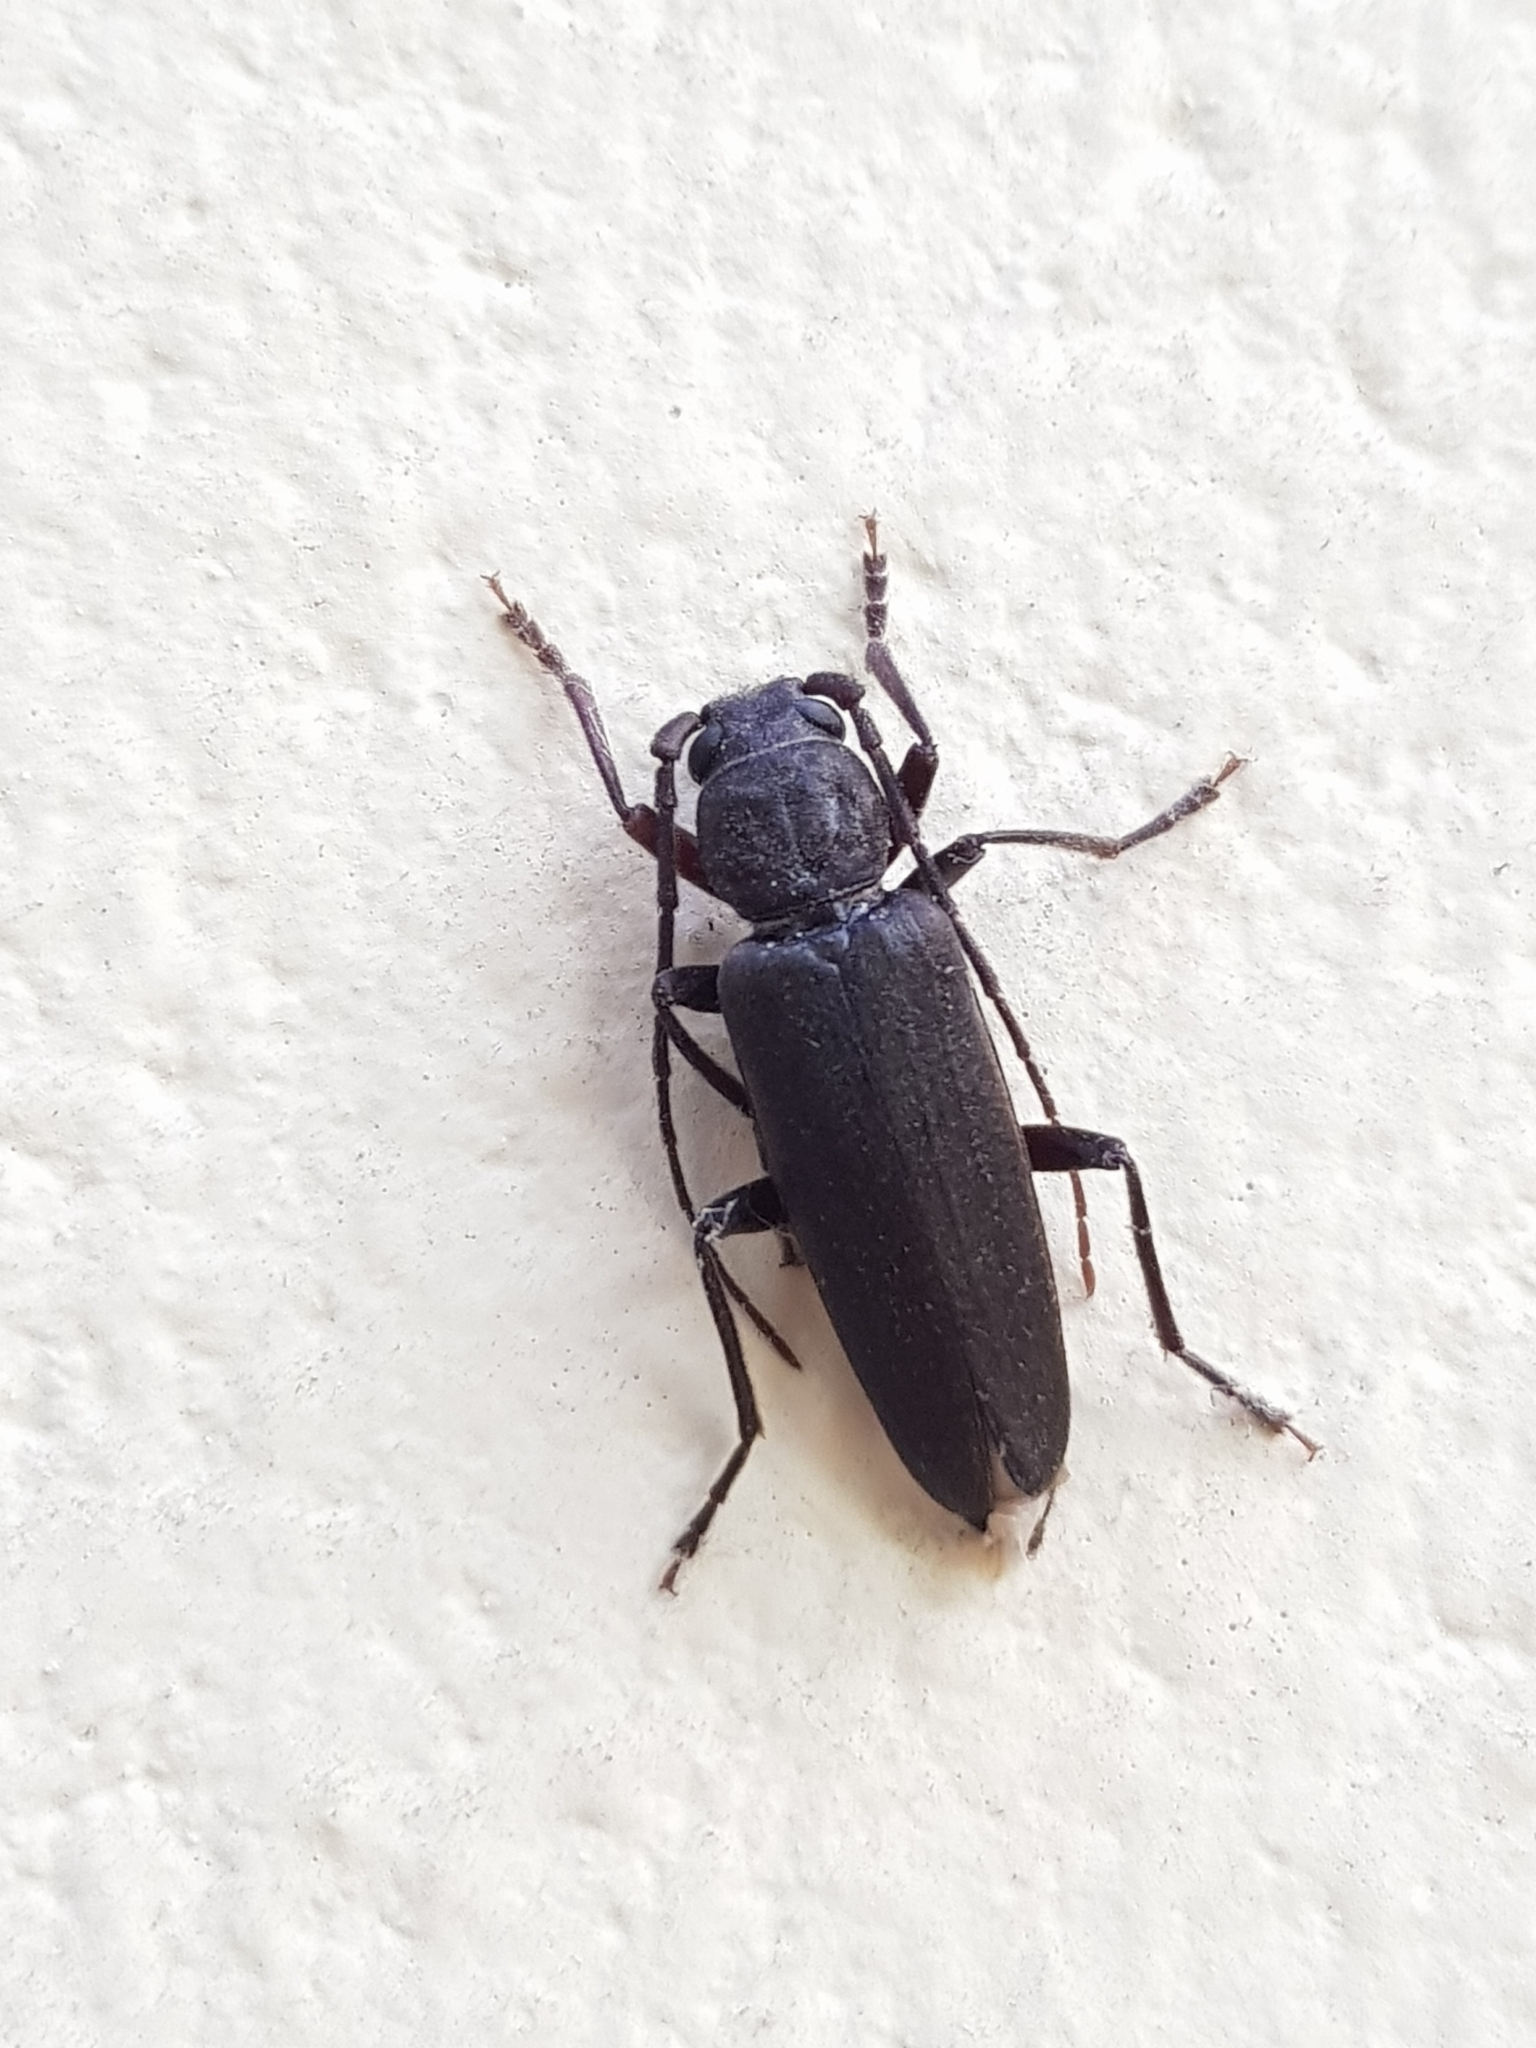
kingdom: Animalia
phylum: Arthropoda
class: Insecta
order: Coleoptera
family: Cerambycidae
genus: Arhopalus
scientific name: Arhopalus ferus
